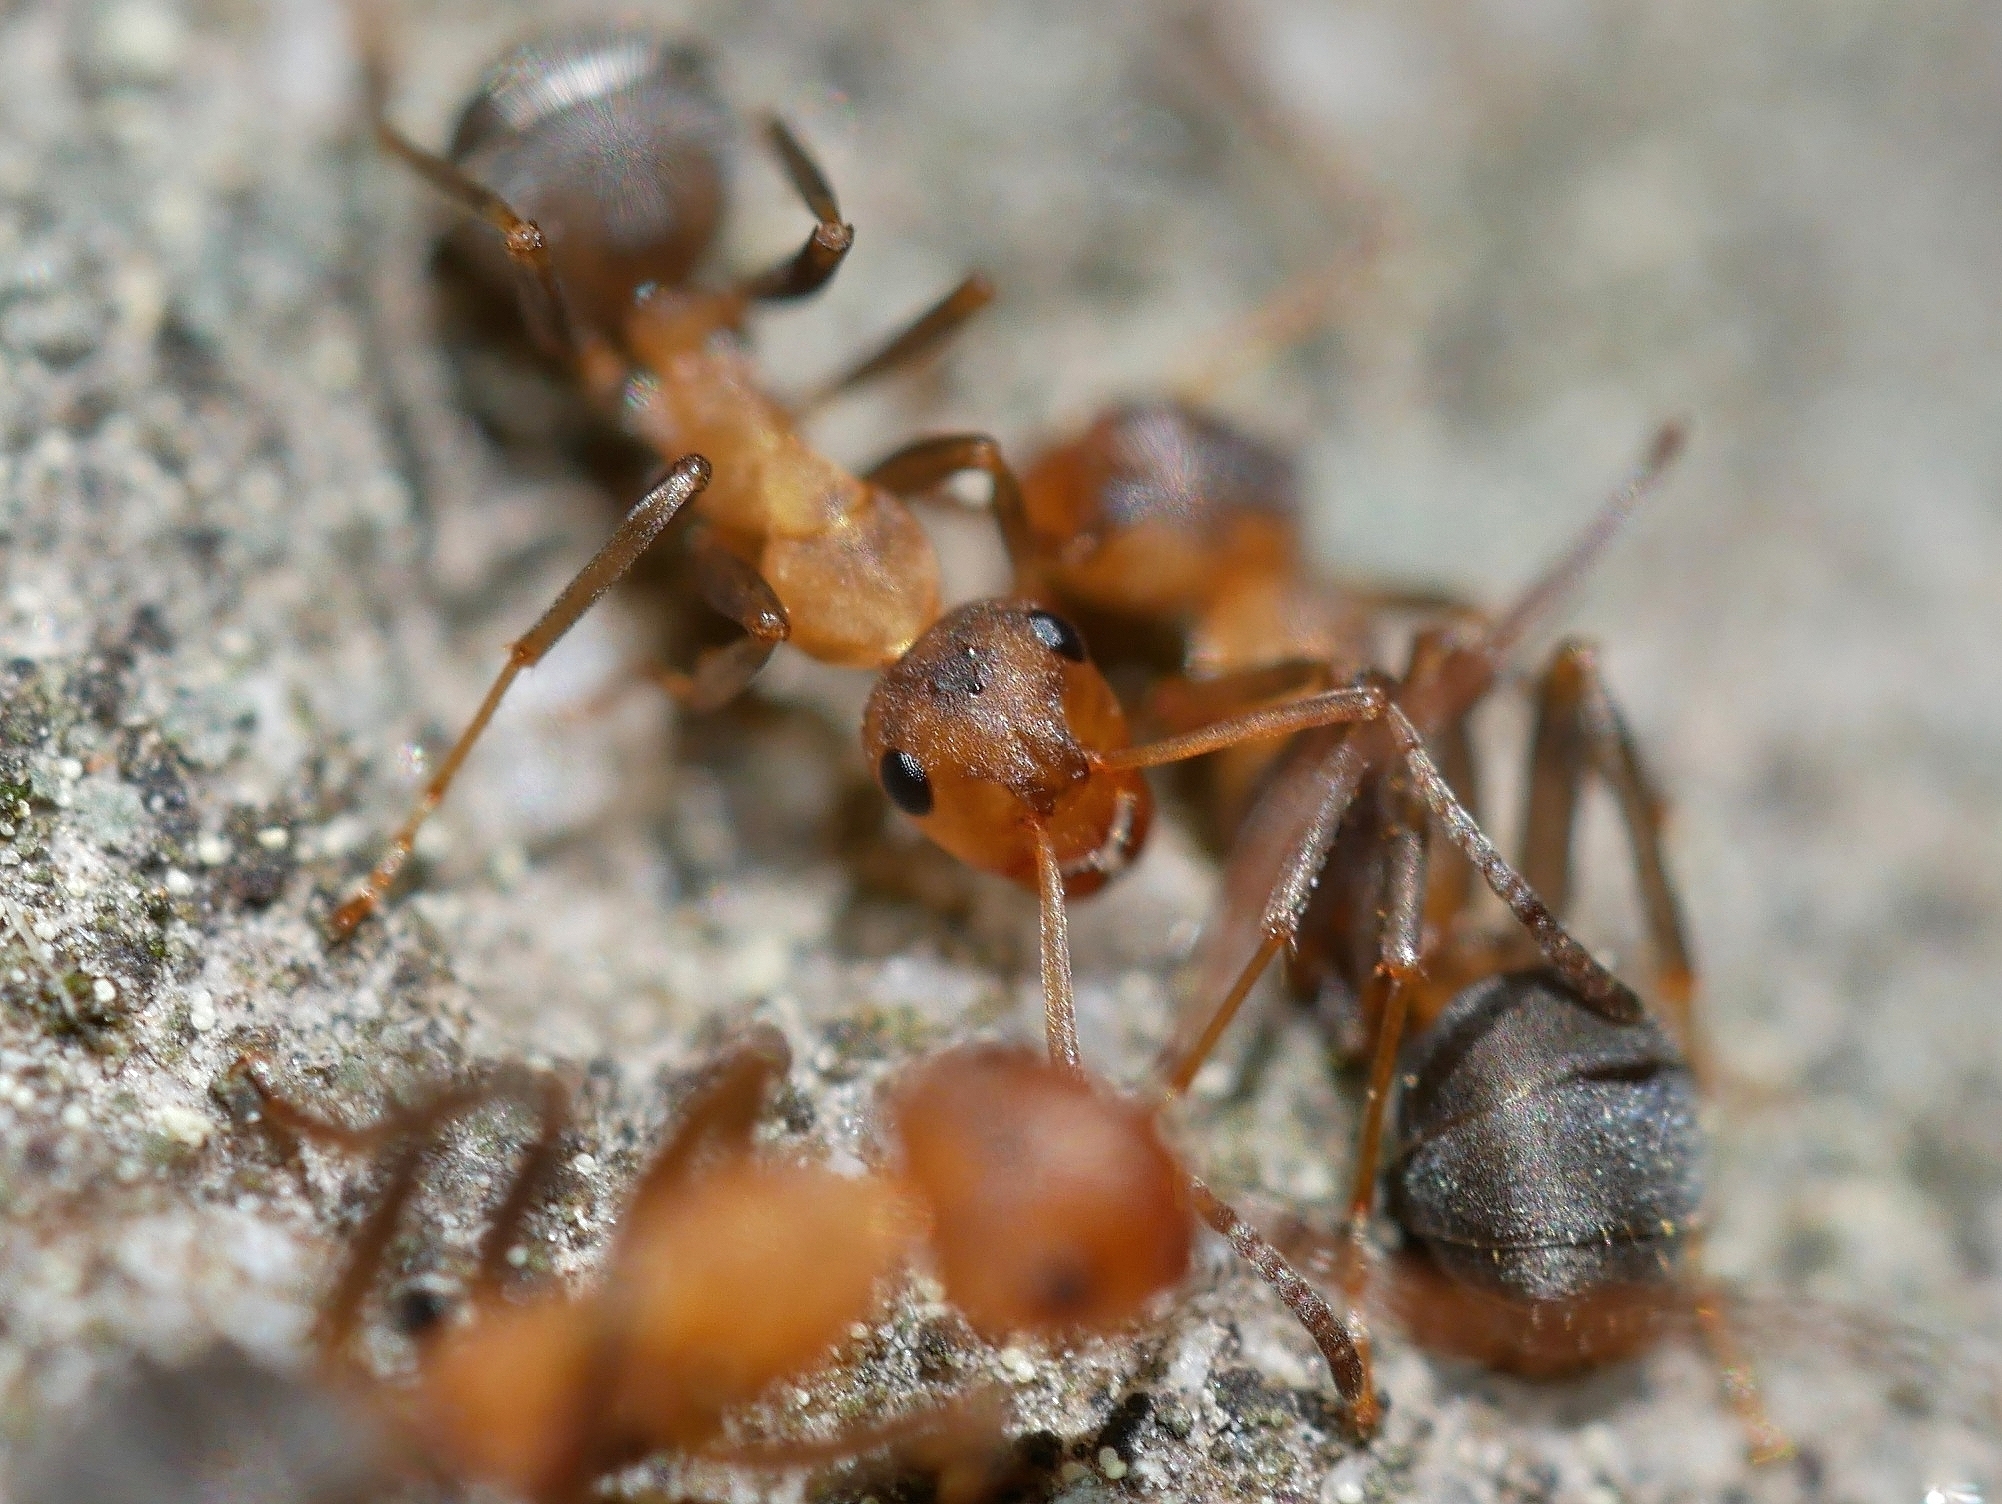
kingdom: Animalia
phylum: Arthropoda
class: Insecta
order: Hymenoptera
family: Formicidae
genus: Formica
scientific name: Formica densiventris
